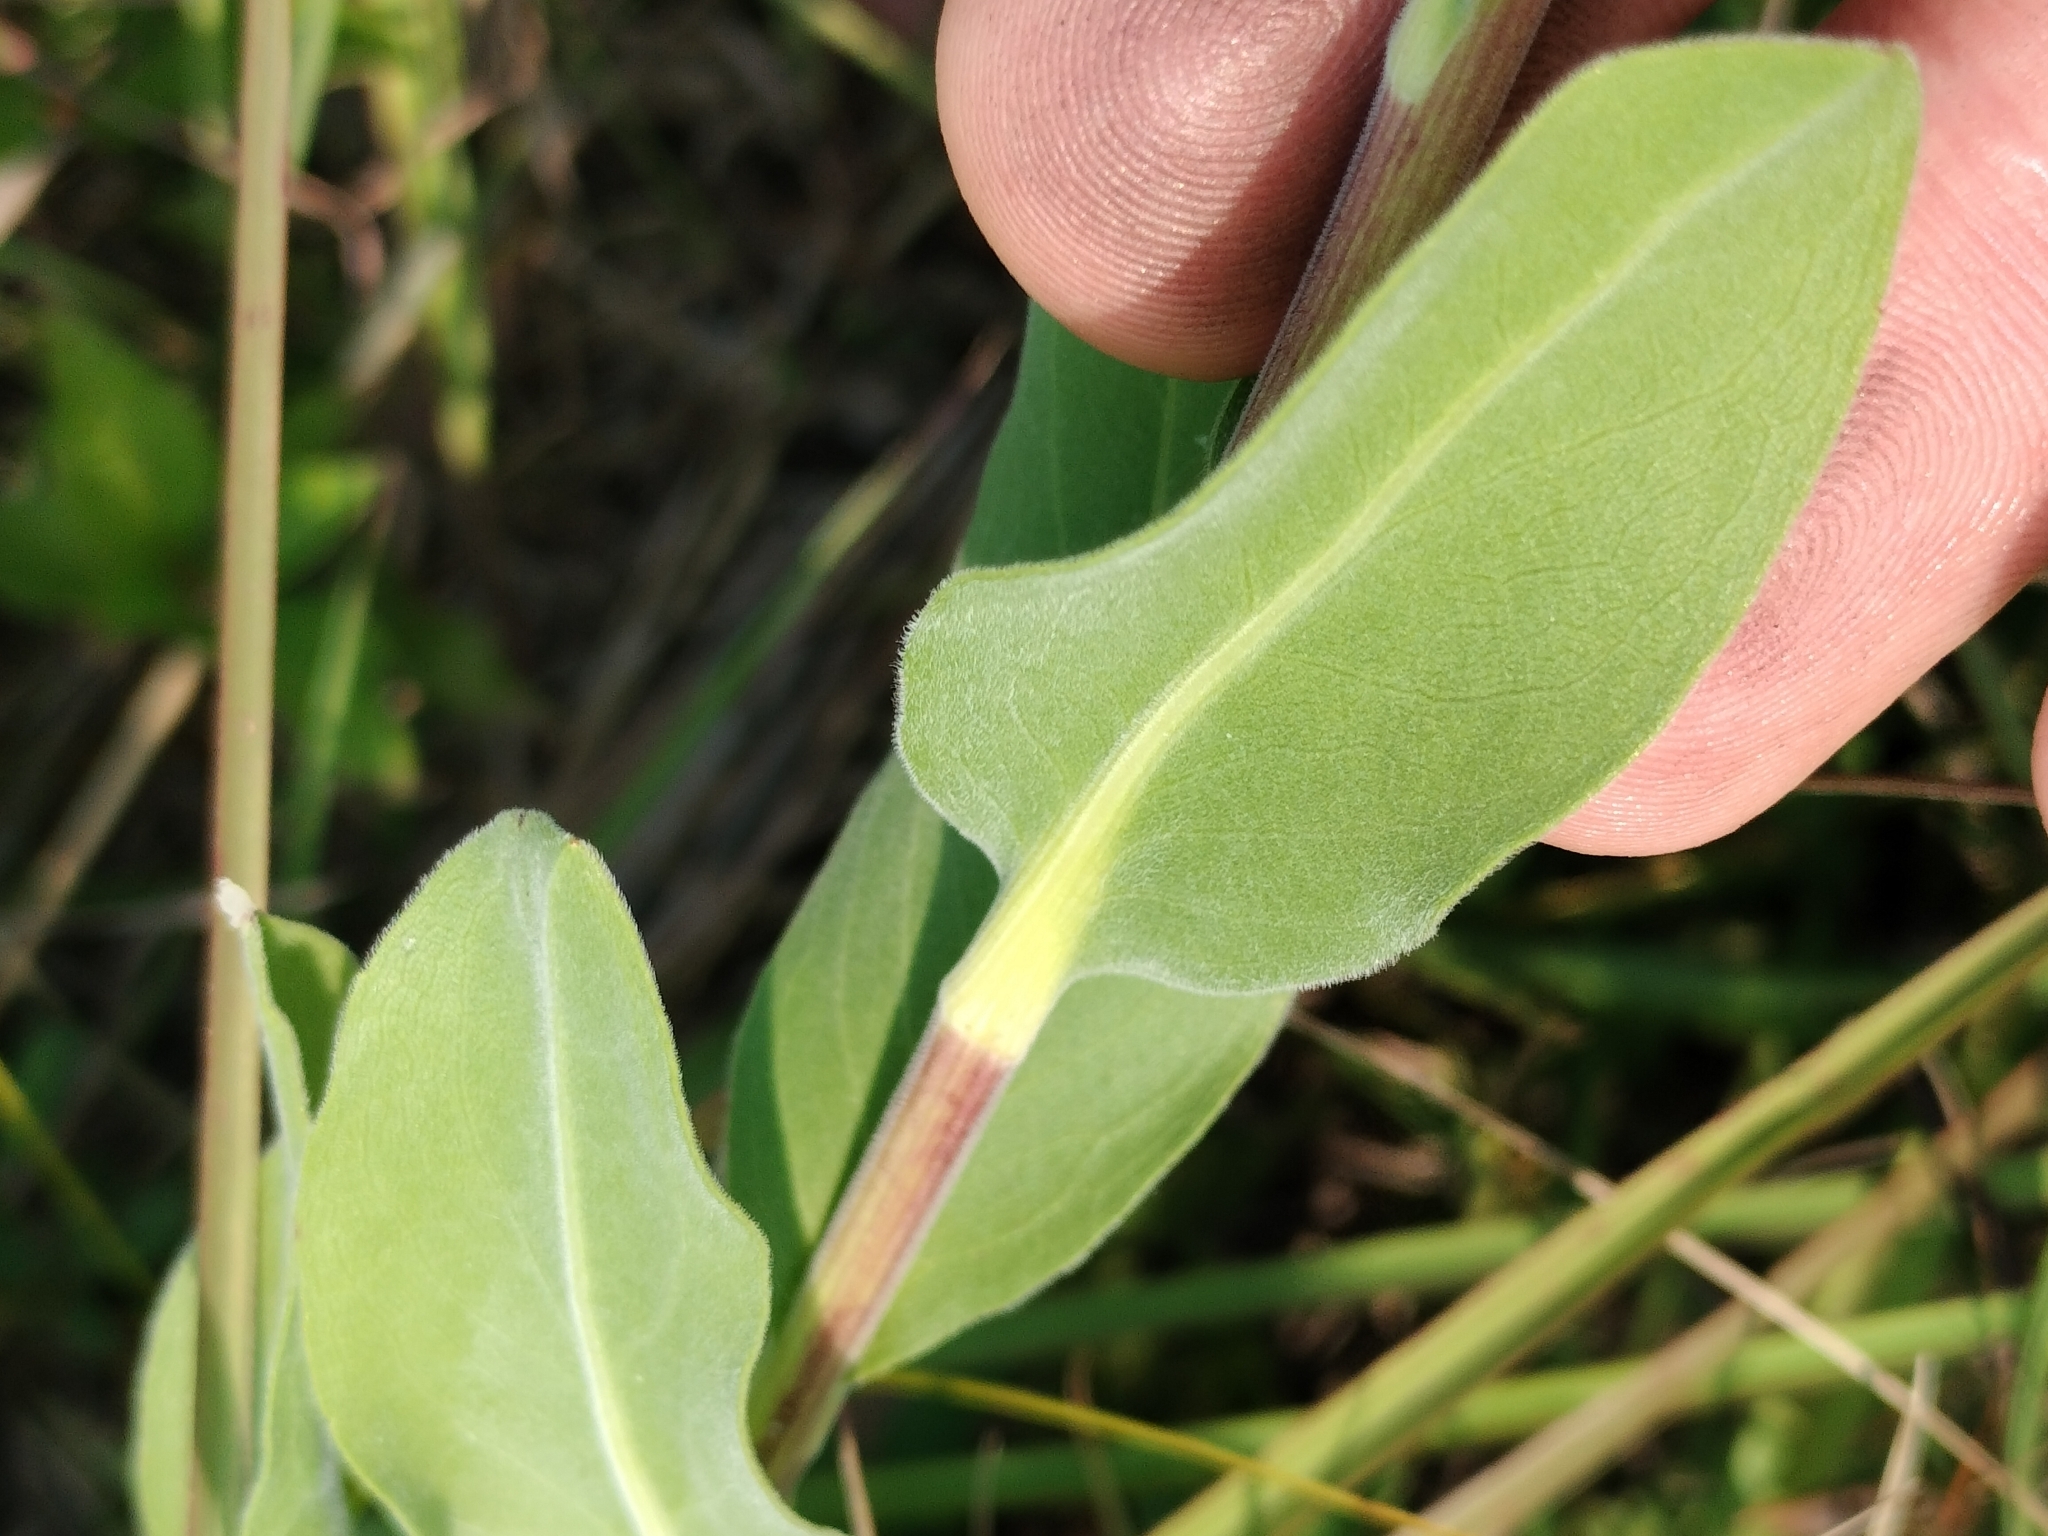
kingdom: Plantae
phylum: Tracheophyta
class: Magnoliopsida
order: Asterales
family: Asteraceae
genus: Solidago
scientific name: Solidago rigida
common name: Rigid goldenrod
